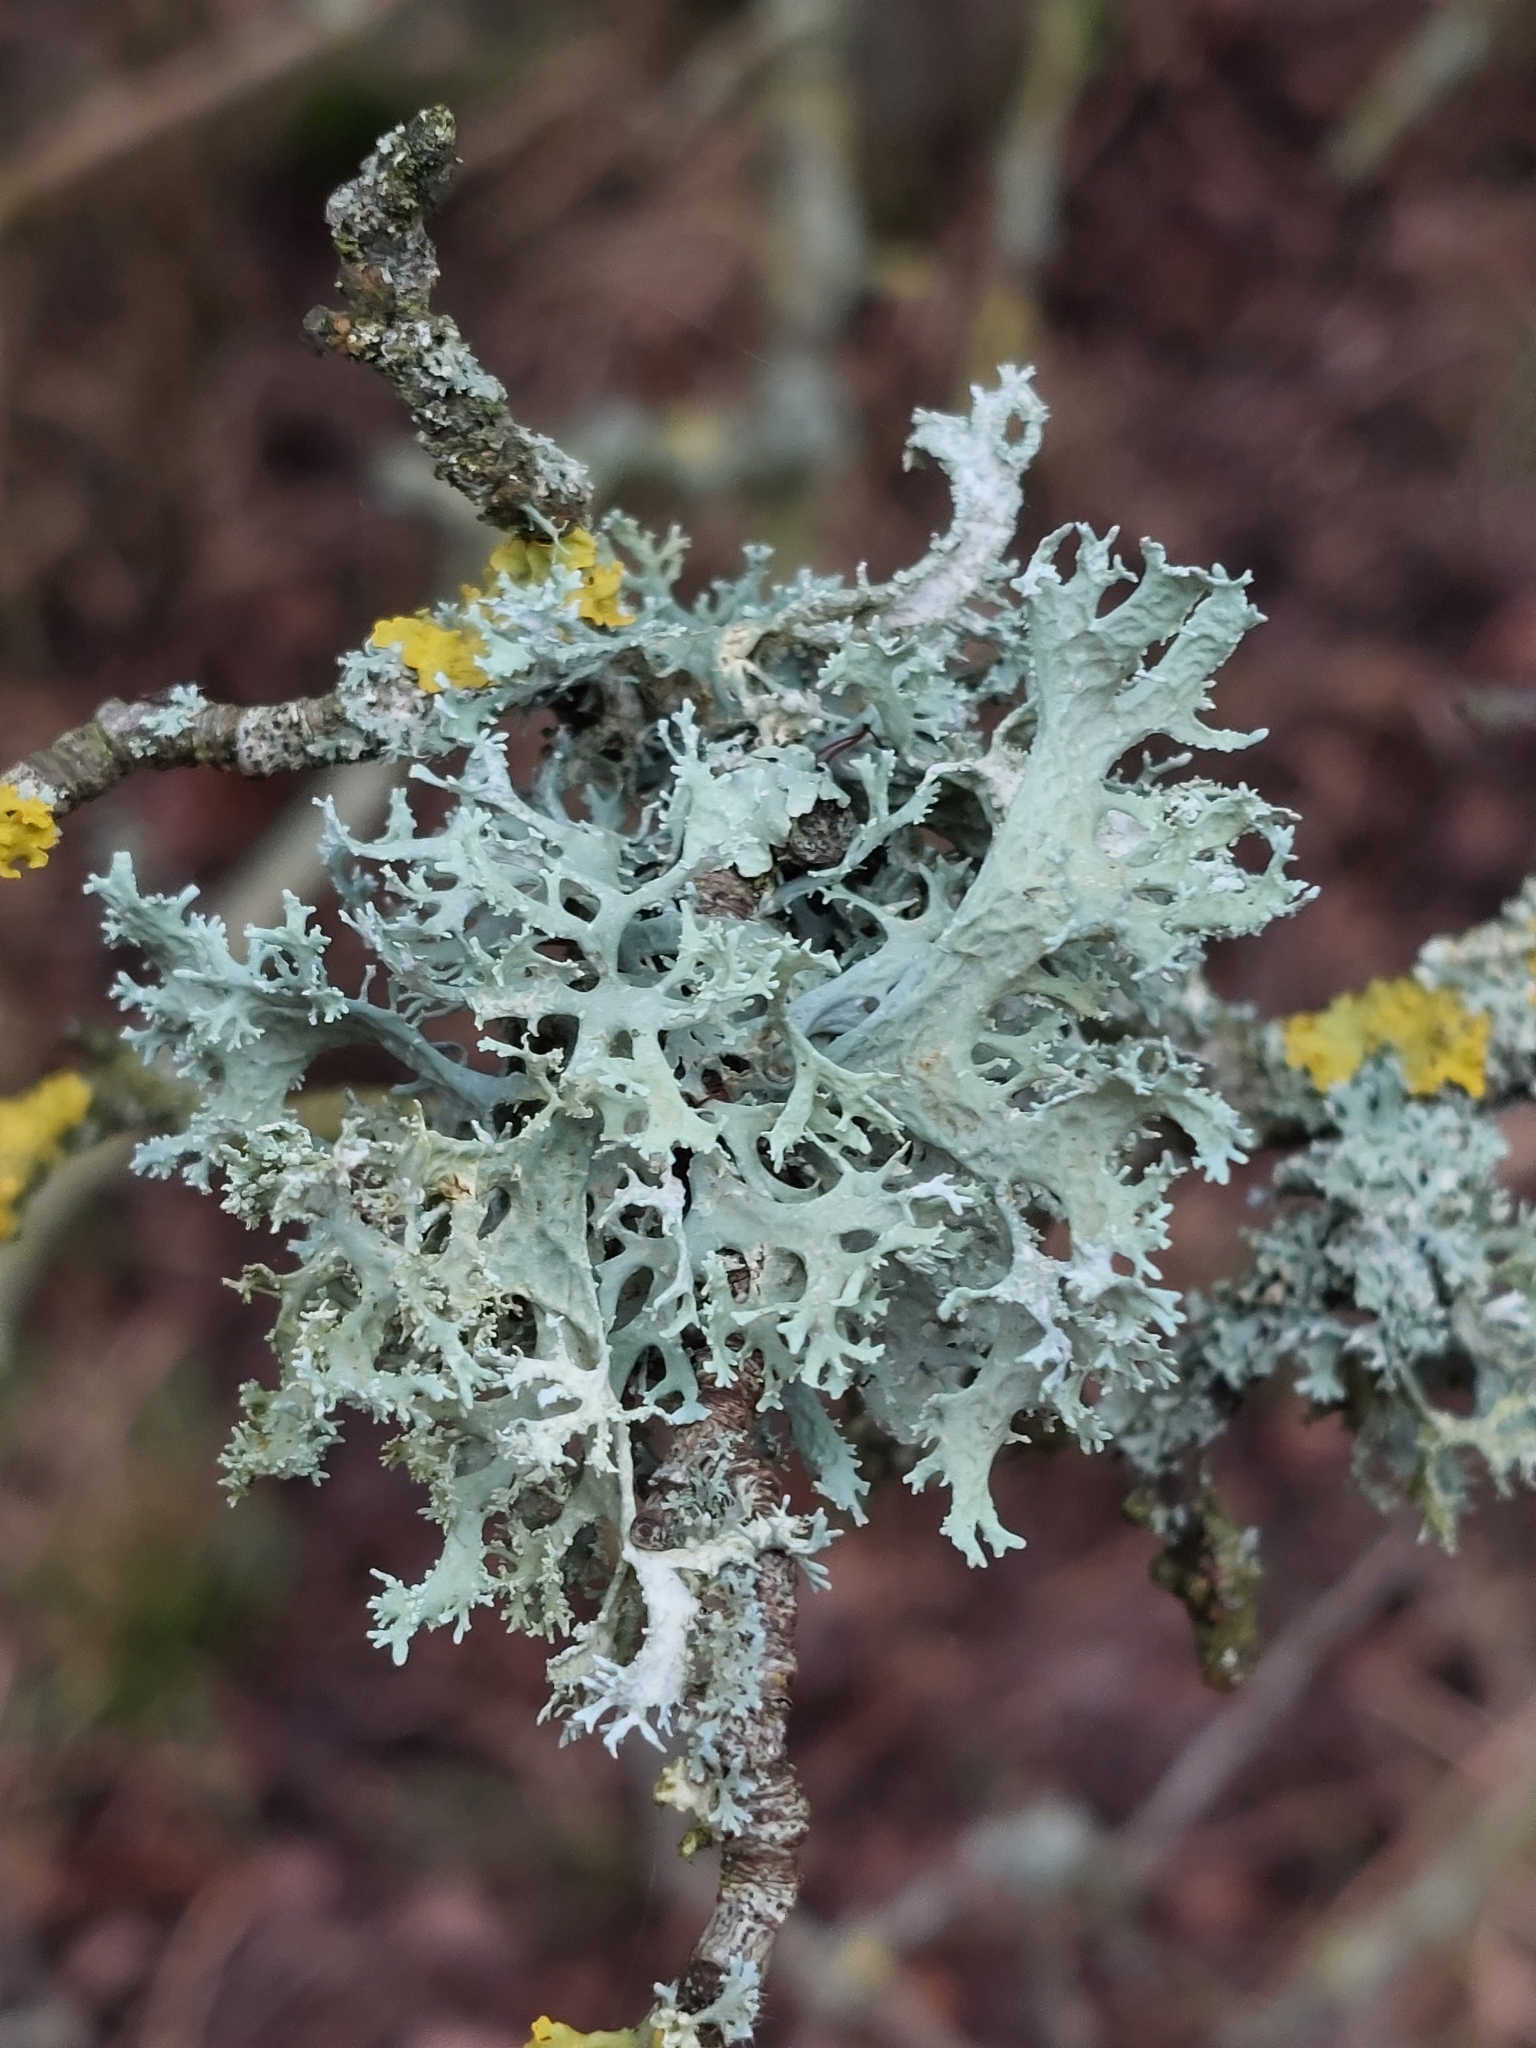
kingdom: Fungi
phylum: Ascomycota
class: Lecanoromycetes
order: Lecanorales
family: Parmeliaceae
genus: Evernia
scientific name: Evernia prunastri
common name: Oak moss
